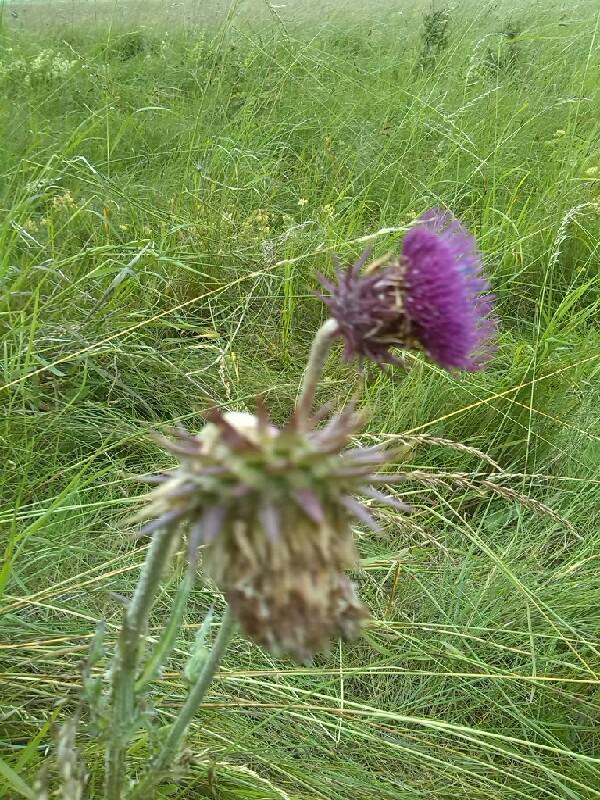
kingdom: Plantae
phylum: Tracheophyta
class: Magnoliopsida
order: Asterales
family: Asteraceae
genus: Carduus
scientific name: Carduus nutans
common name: Musk thistle
